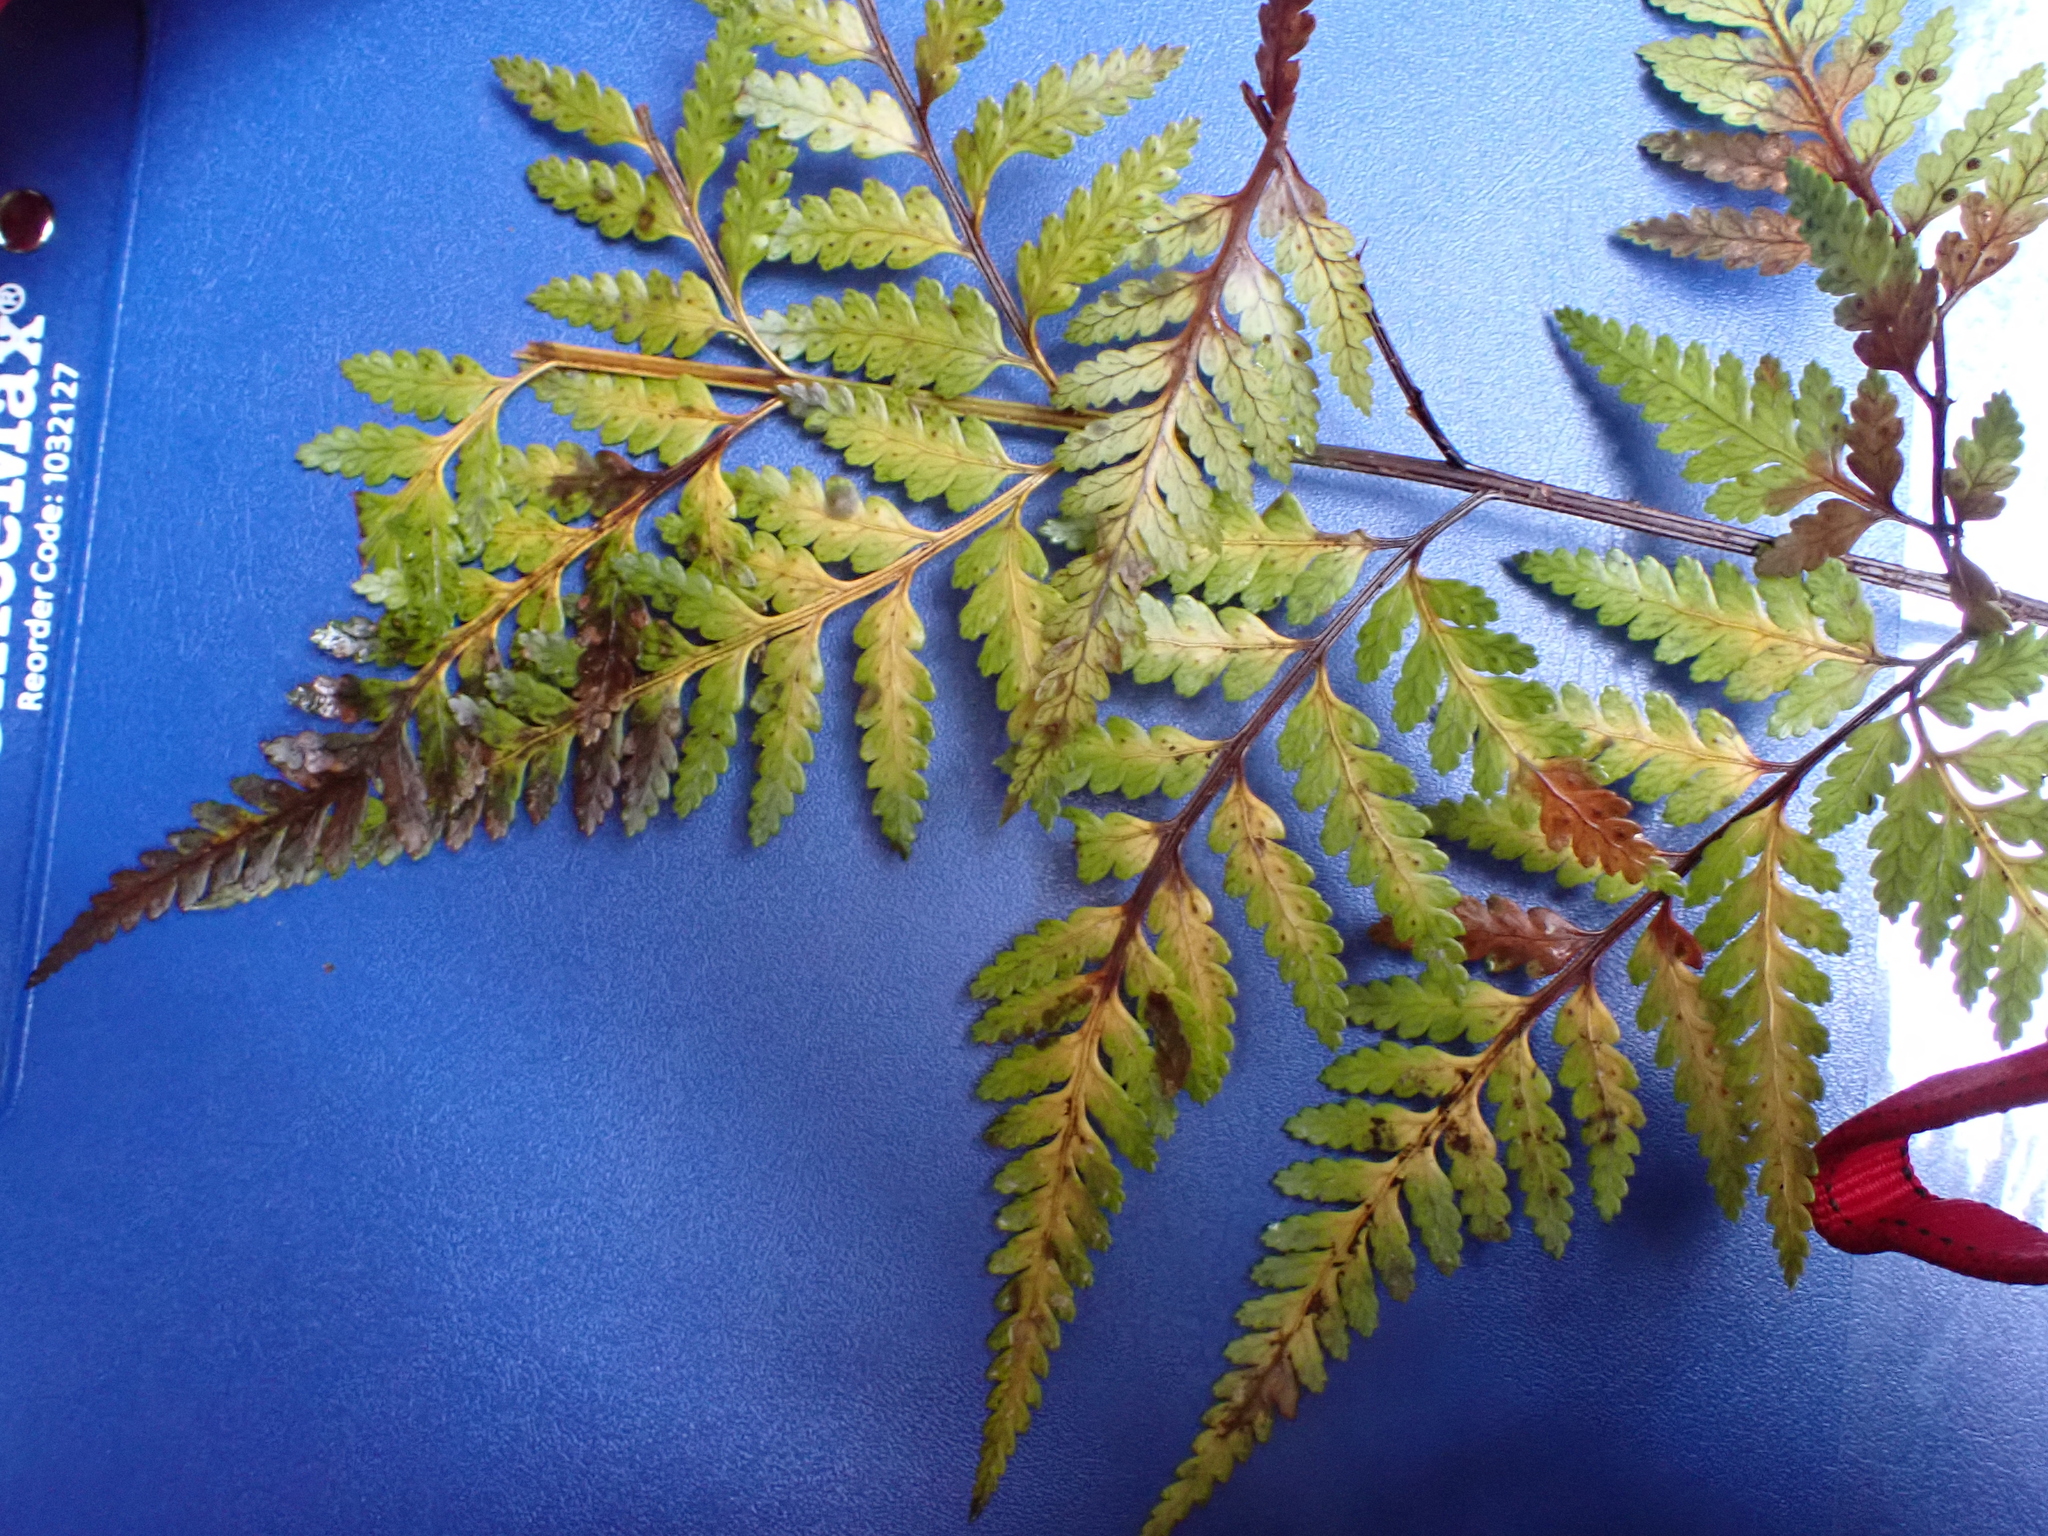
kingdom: Plantae
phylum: Tracheophyta
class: Polypodiopsida
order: Polypodiales
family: Dryopteridaceae
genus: Rumohra
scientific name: Rumohra adiantiformis
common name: Leather fern
